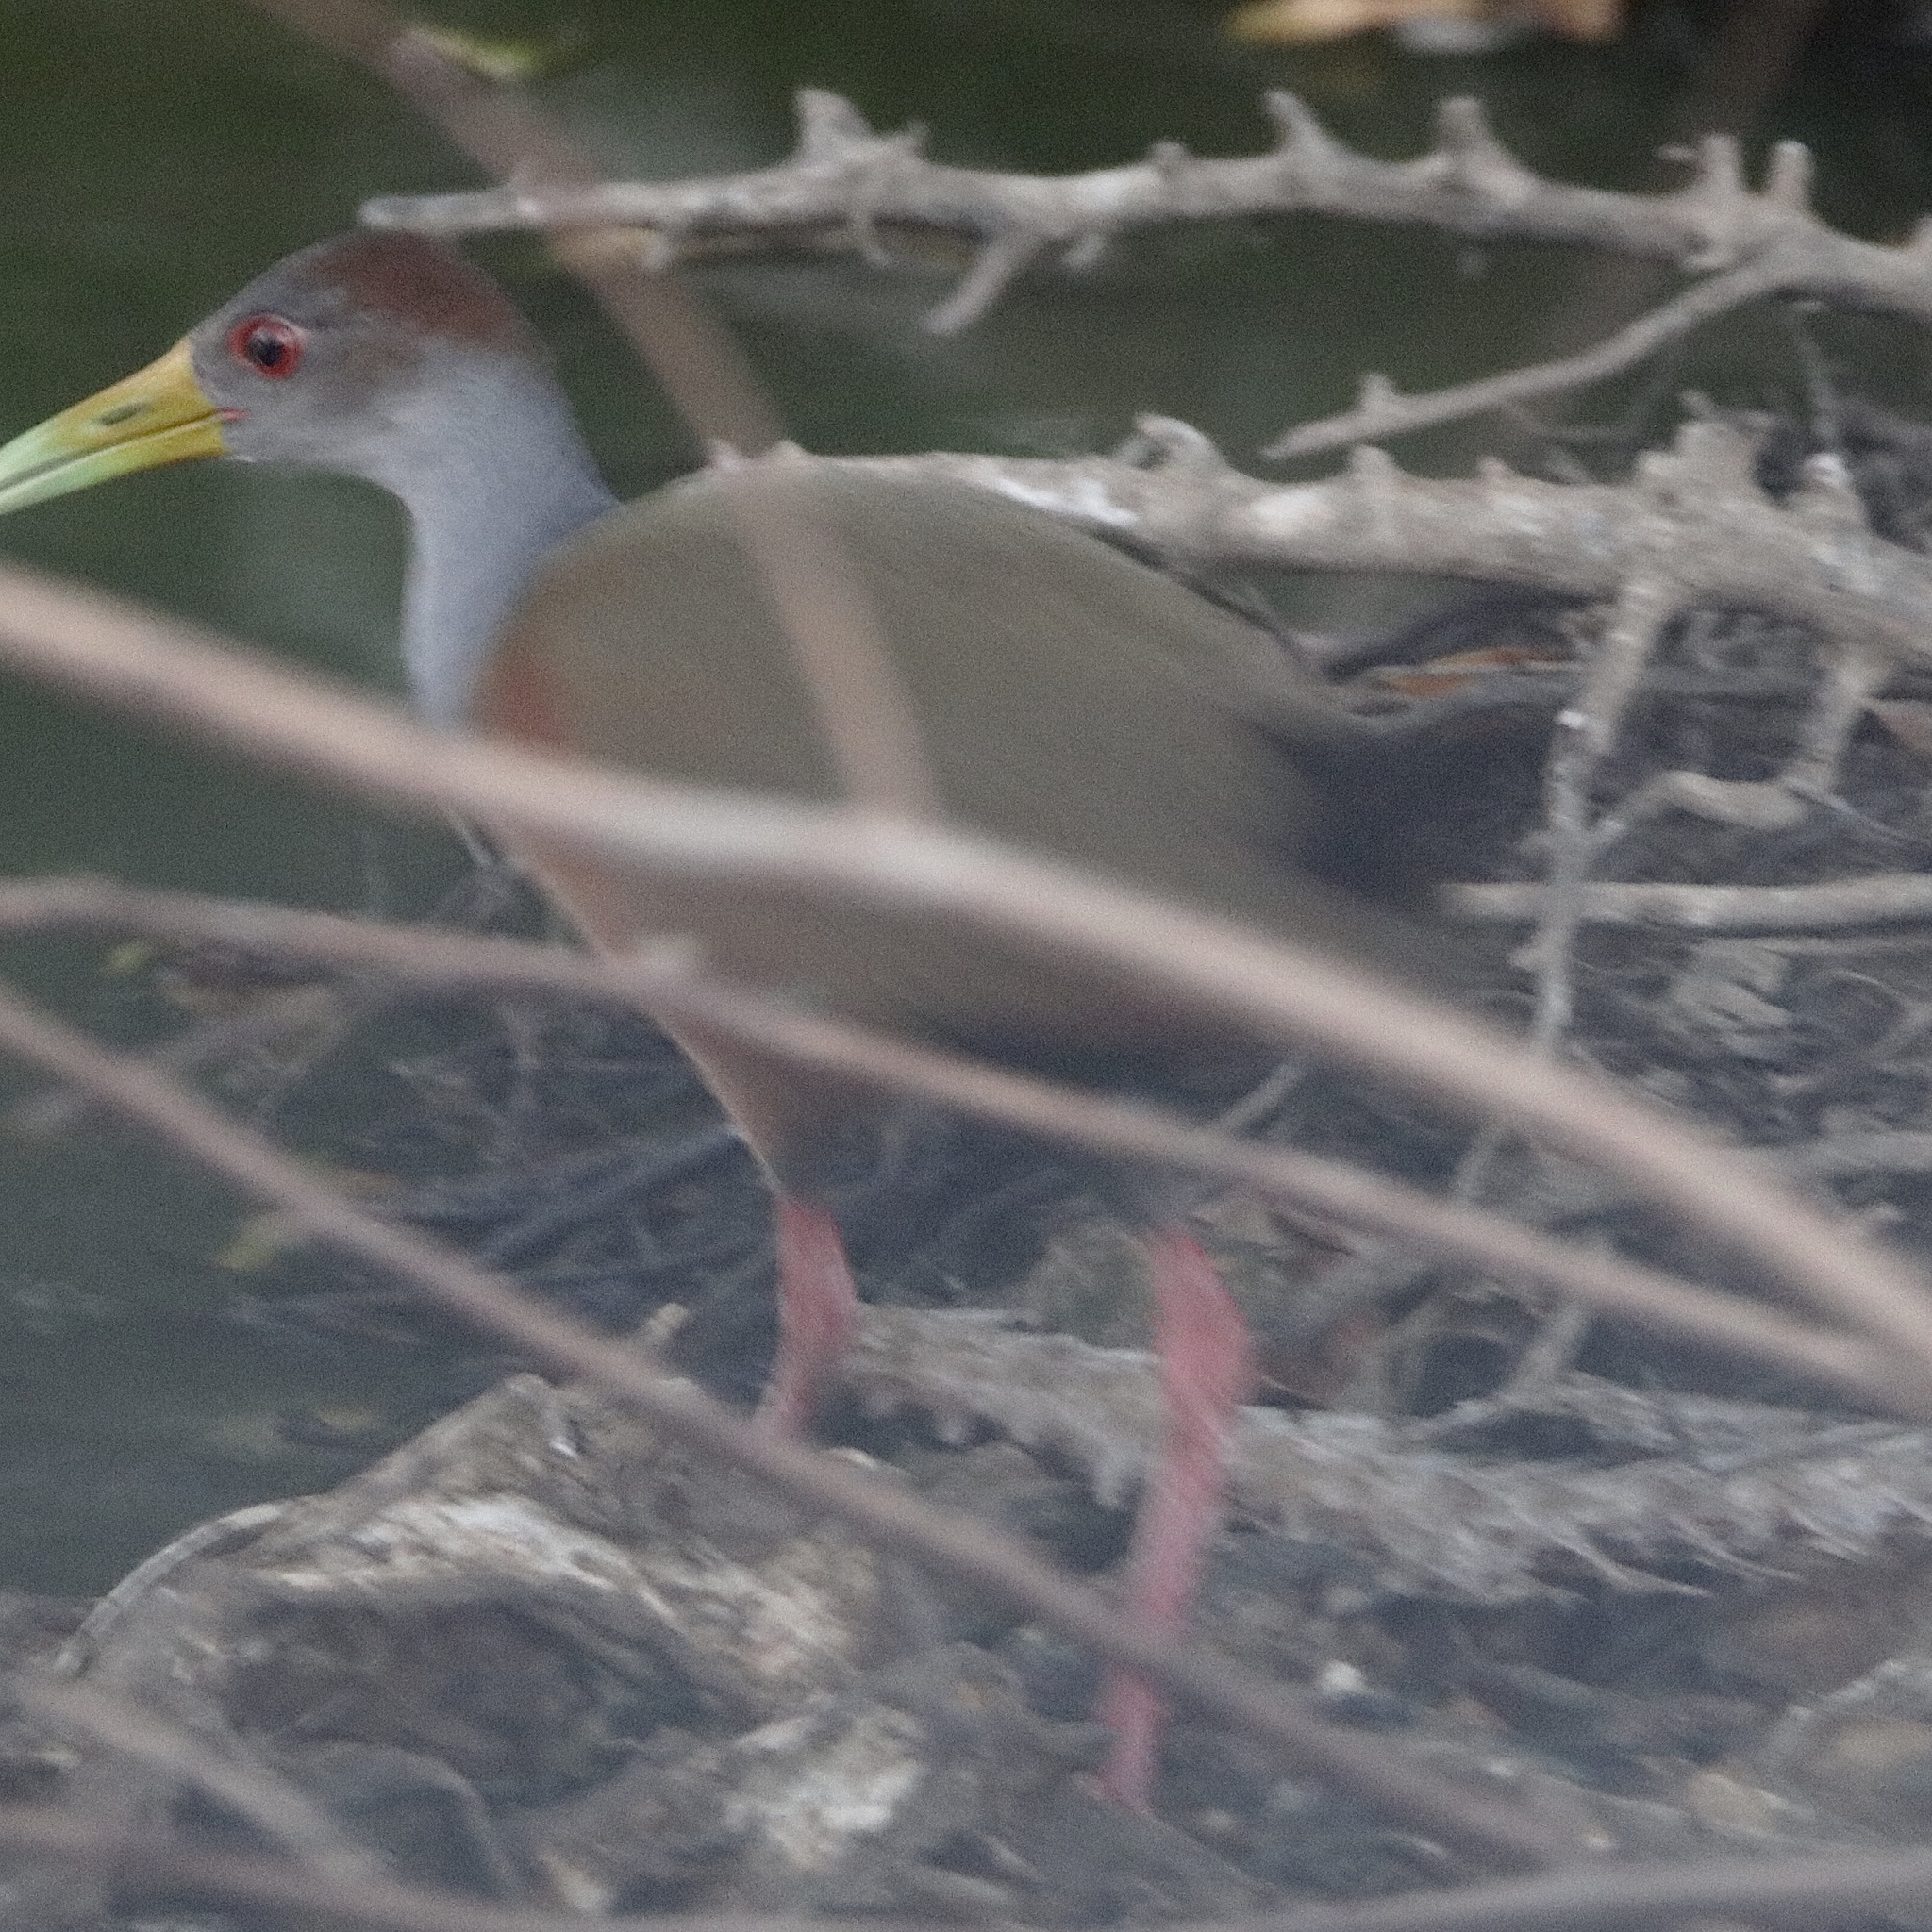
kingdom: Animalia
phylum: Chordata
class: Aves
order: Gruiformes
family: Rallidae
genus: Aramides
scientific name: Aramides cajanea
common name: Gray-necked wood-rail
